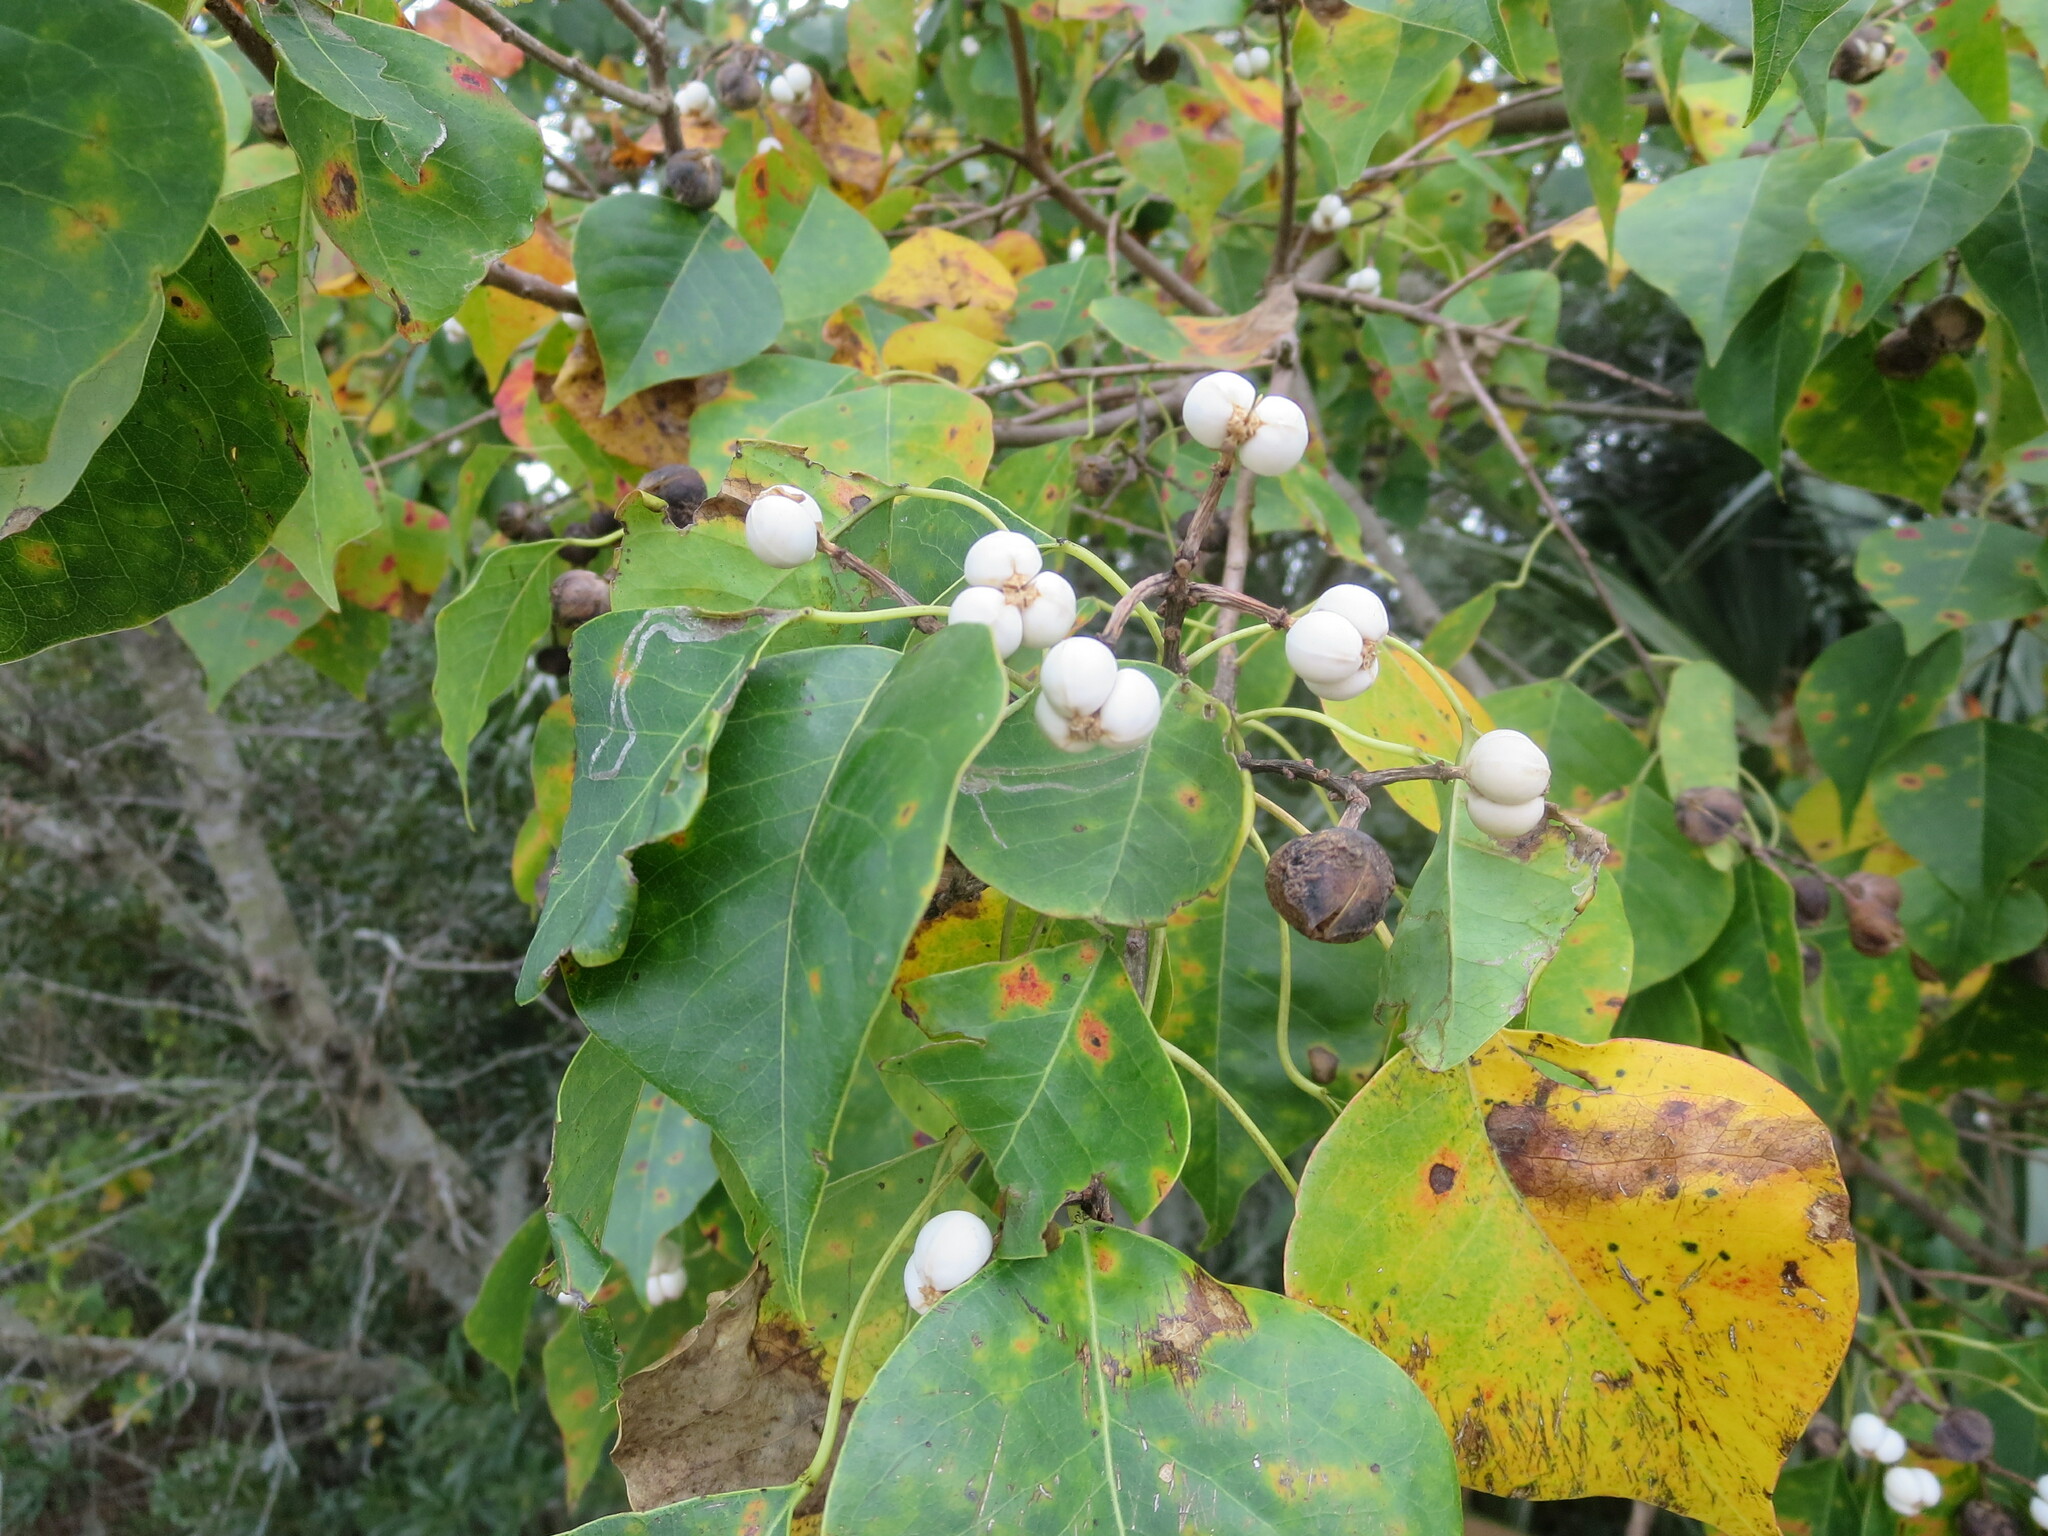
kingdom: Plantae
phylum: Tracheophyta
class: Magnoliopsida
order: Malpighiales
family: Euphorbiaceae
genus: Triadica
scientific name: Triadica sebifera
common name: Chinese tallow
